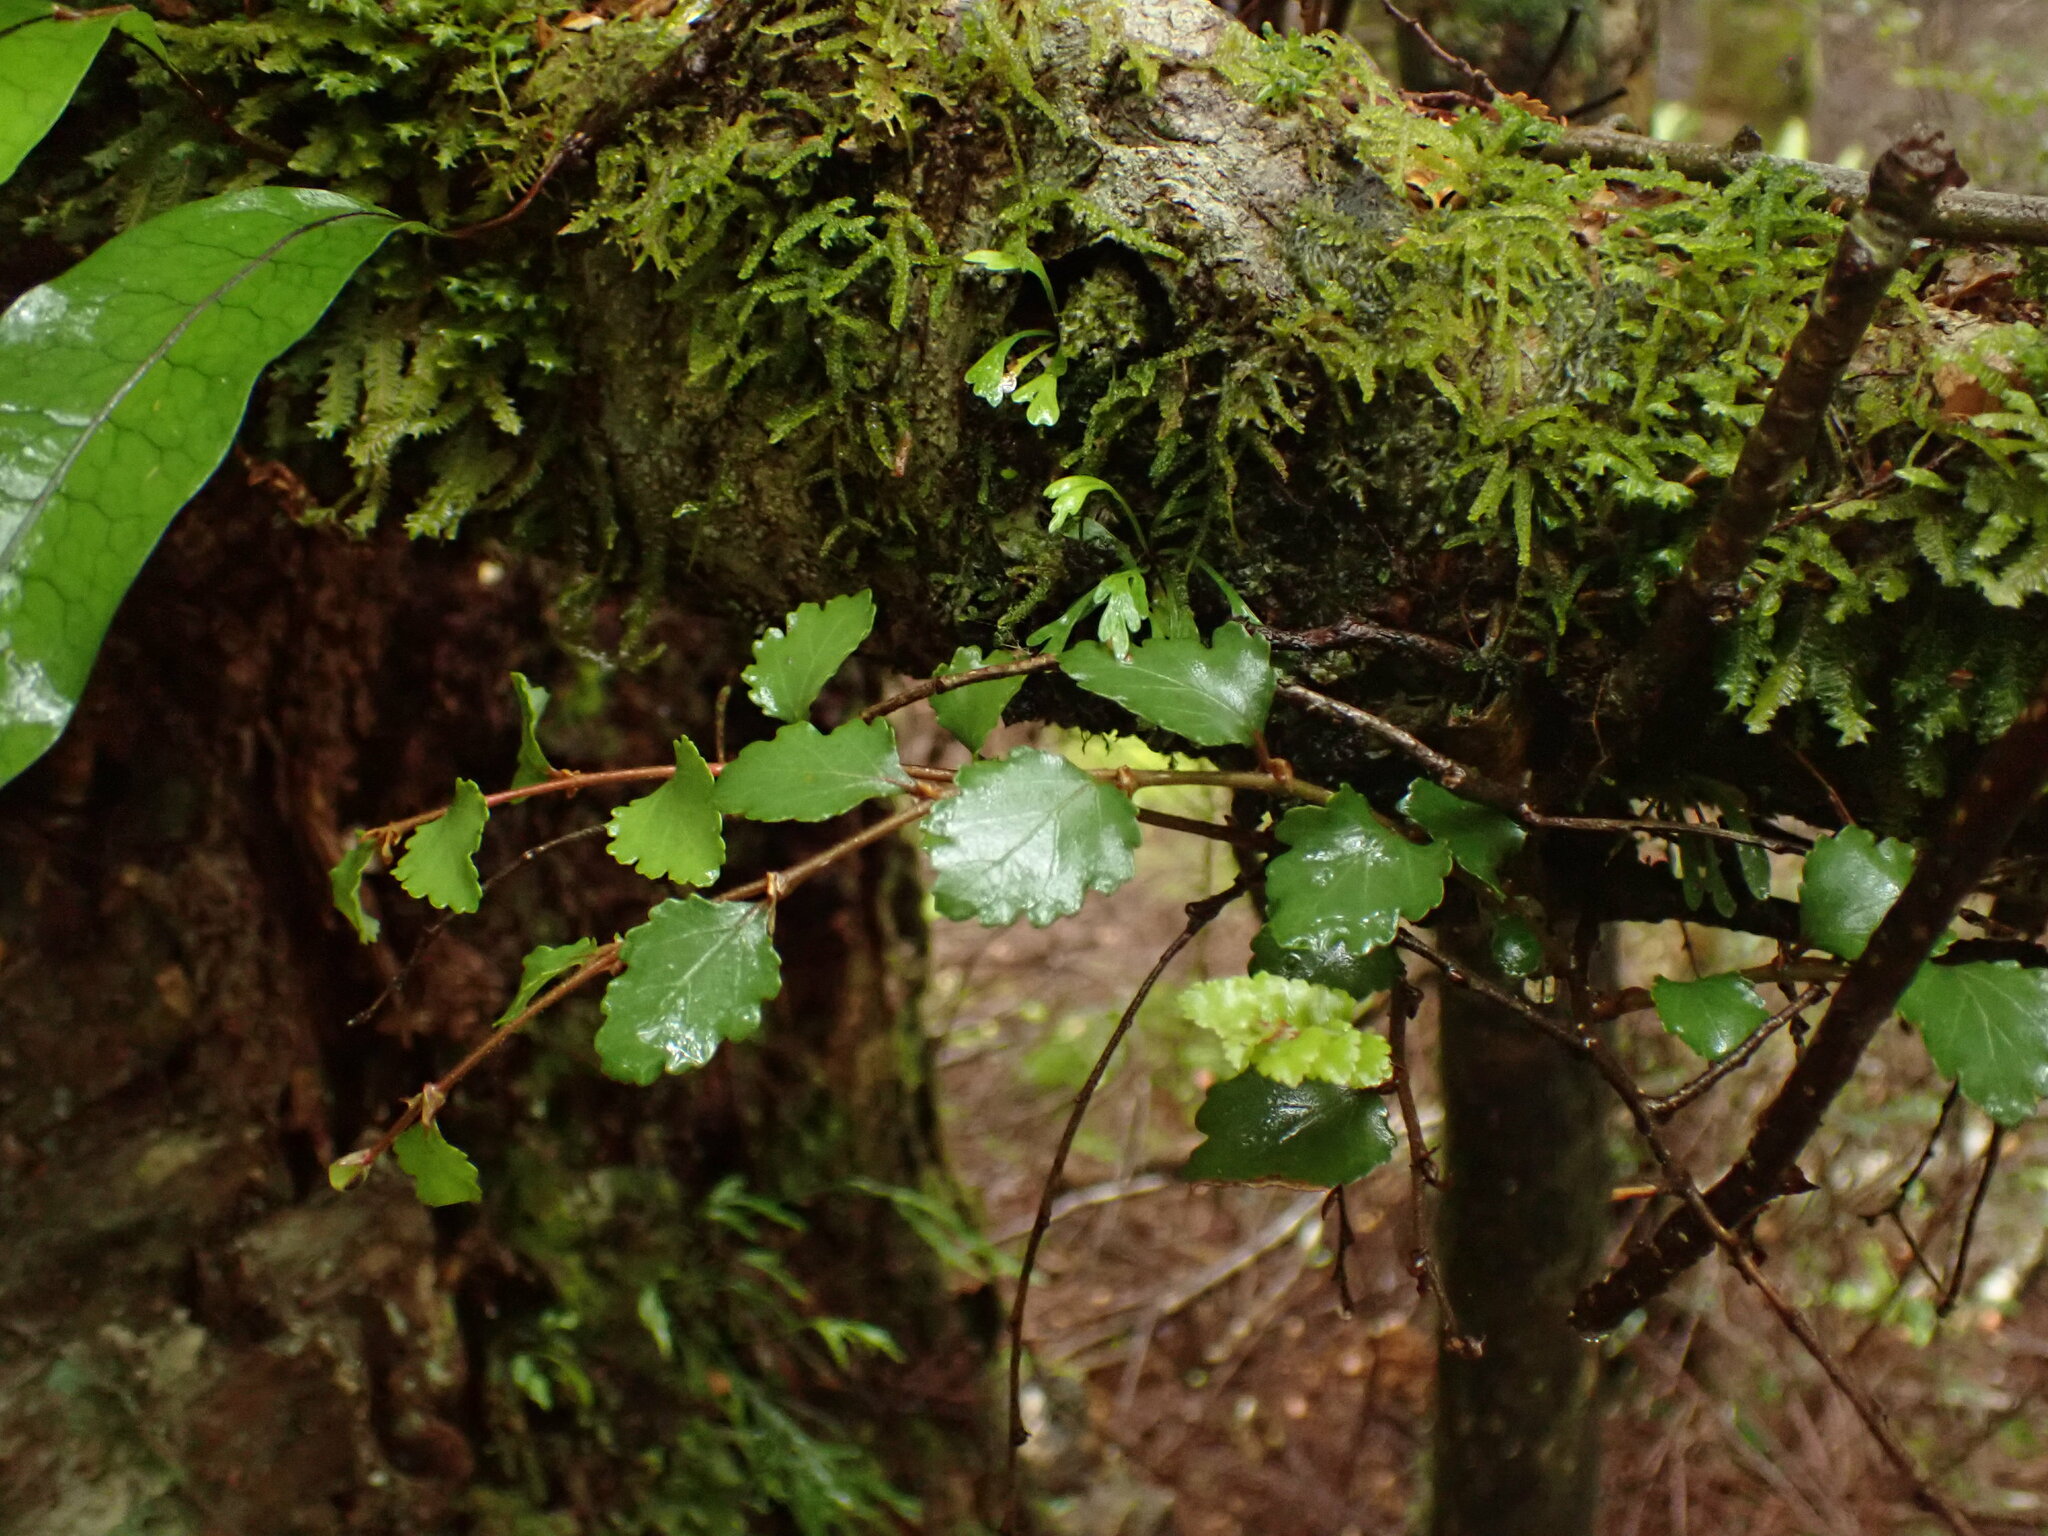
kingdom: Plantae
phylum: Tracheophyta
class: Magnoliopsida
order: Fagales
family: Nothofagaceae
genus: Nothofagus
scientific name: Nothofagus menziesii
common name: Silver beech
